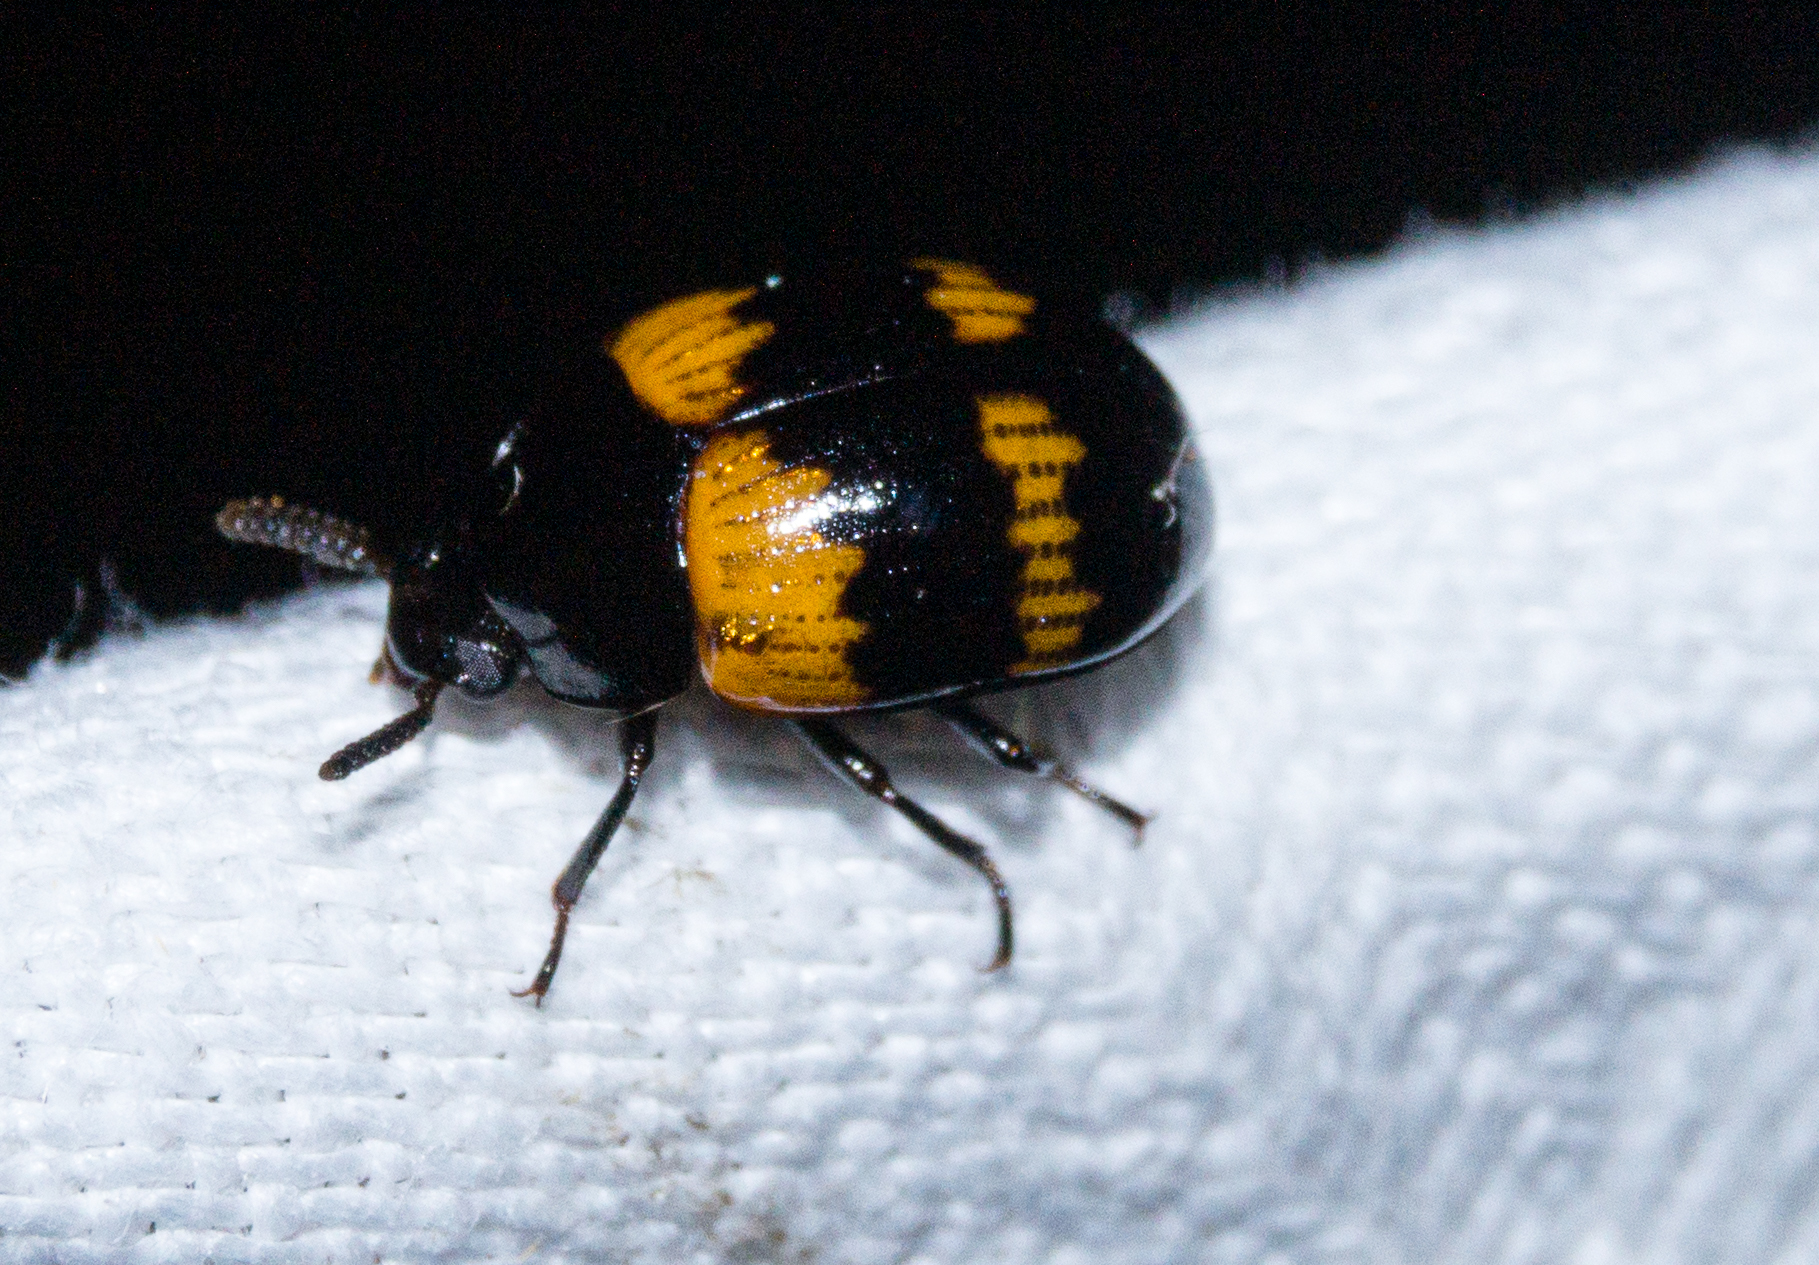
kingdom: Animalia
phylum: Arthropoda
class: Insecta
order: Coleoptera
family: Tenebrionidae
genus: Diaperis
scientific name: Diaperis boleti
